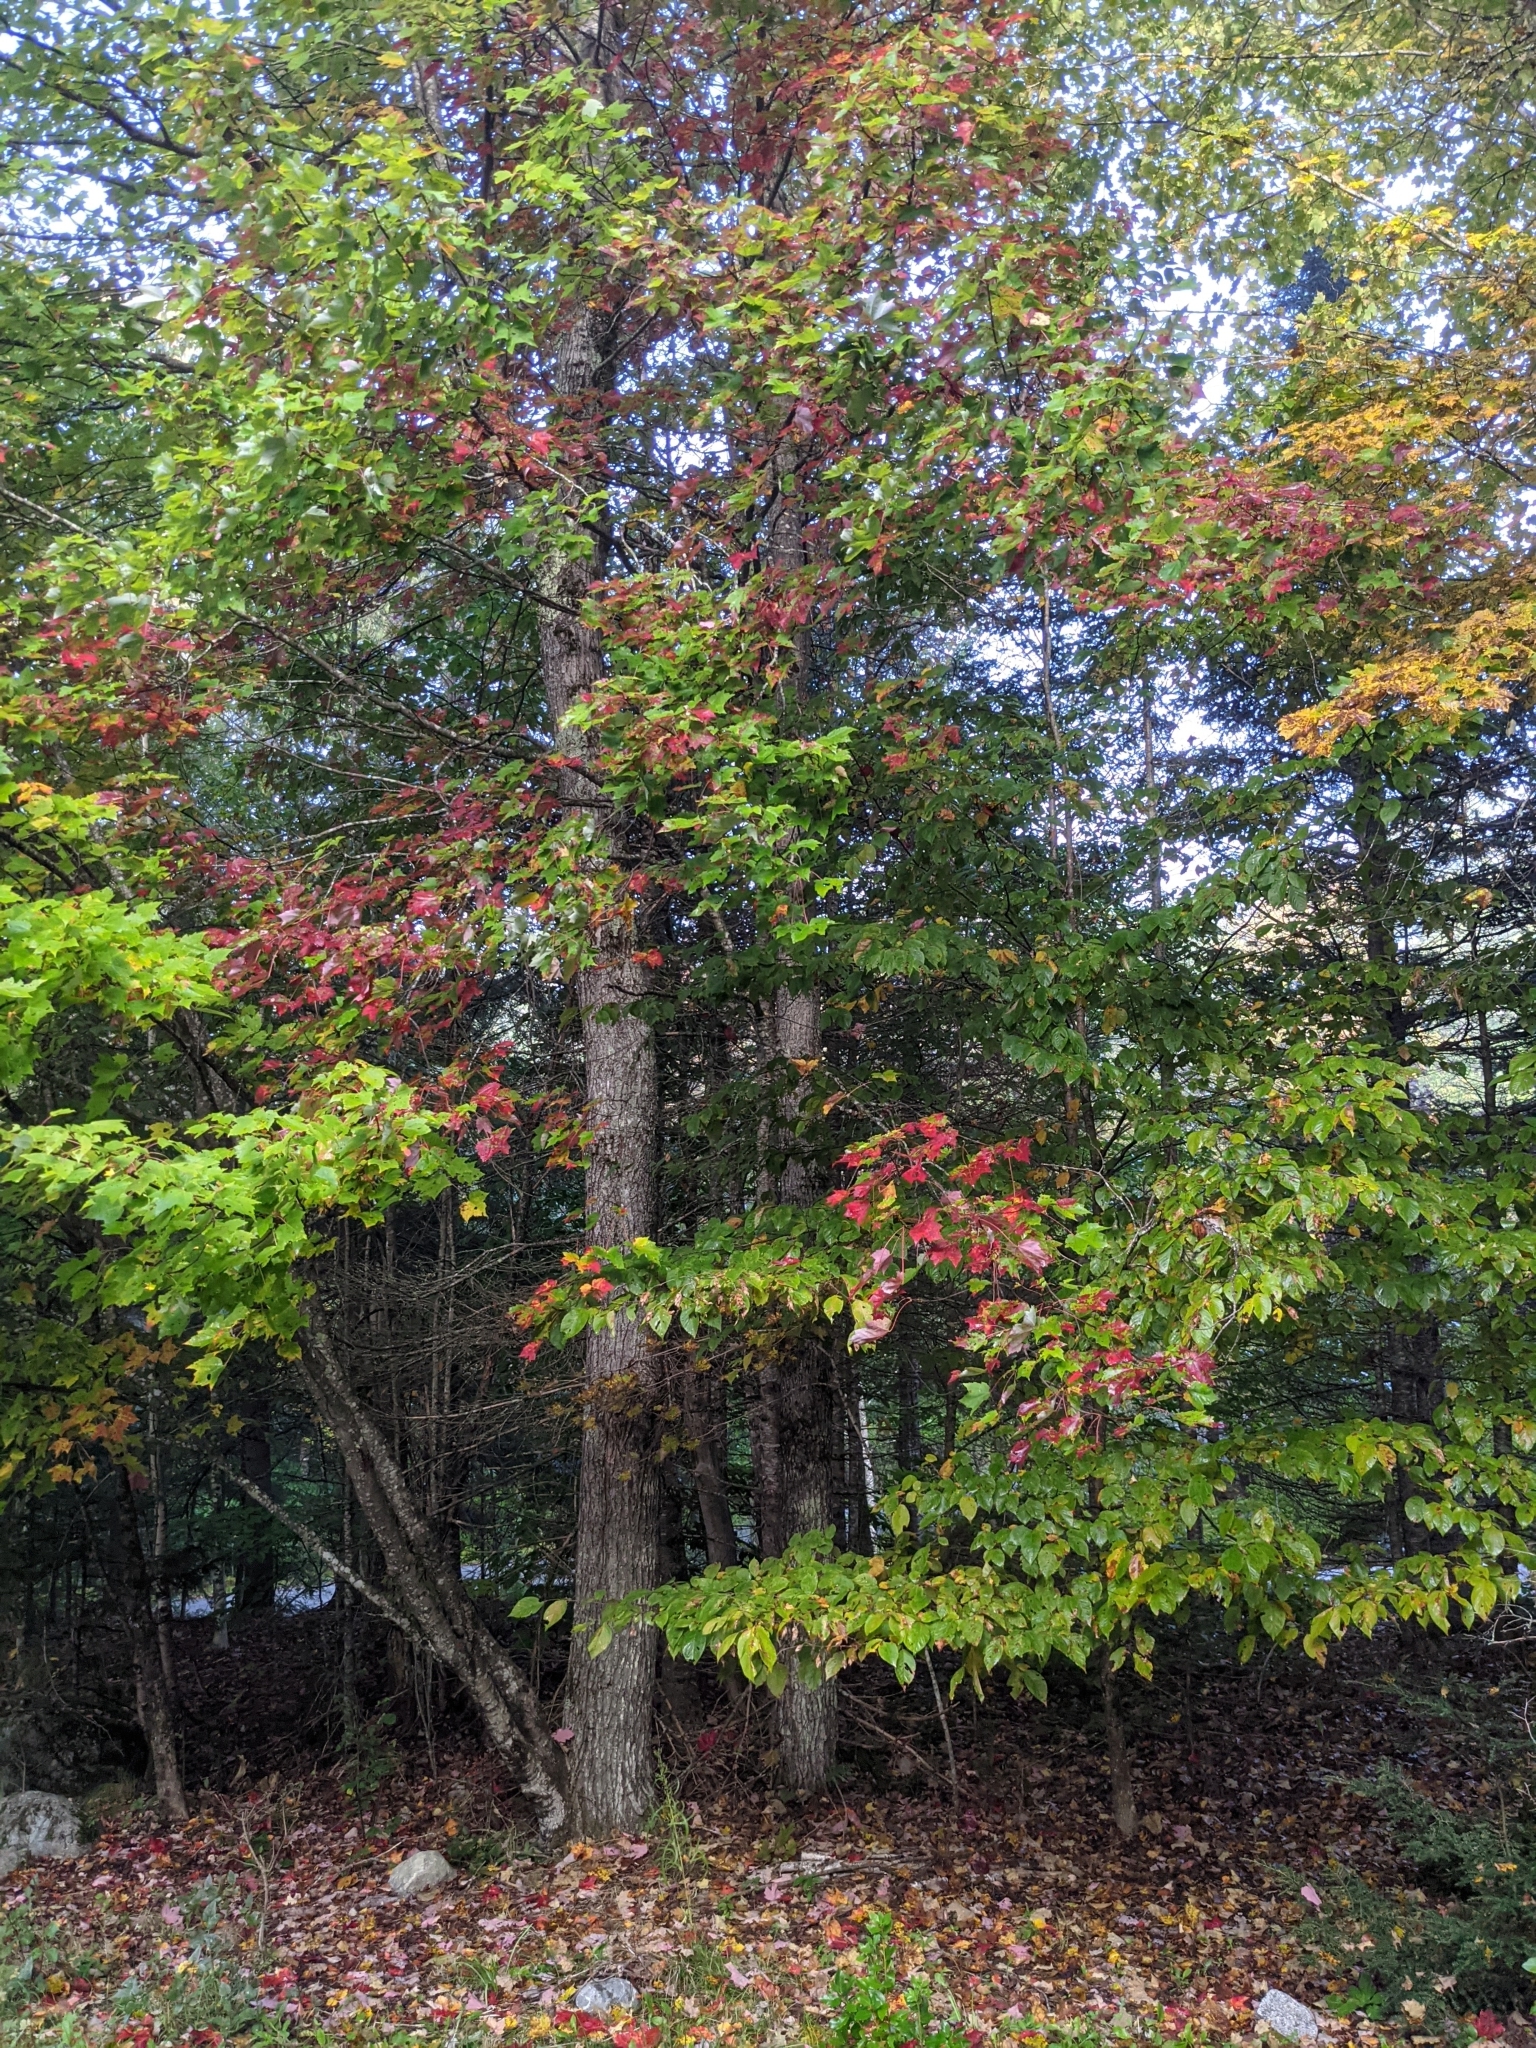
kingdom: Plantae
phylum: Tracheophyta
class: Magnoliopsida
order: Sapindales
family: Sapindaceae
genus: Acer
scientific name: Acer rubrum
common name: Red maple
